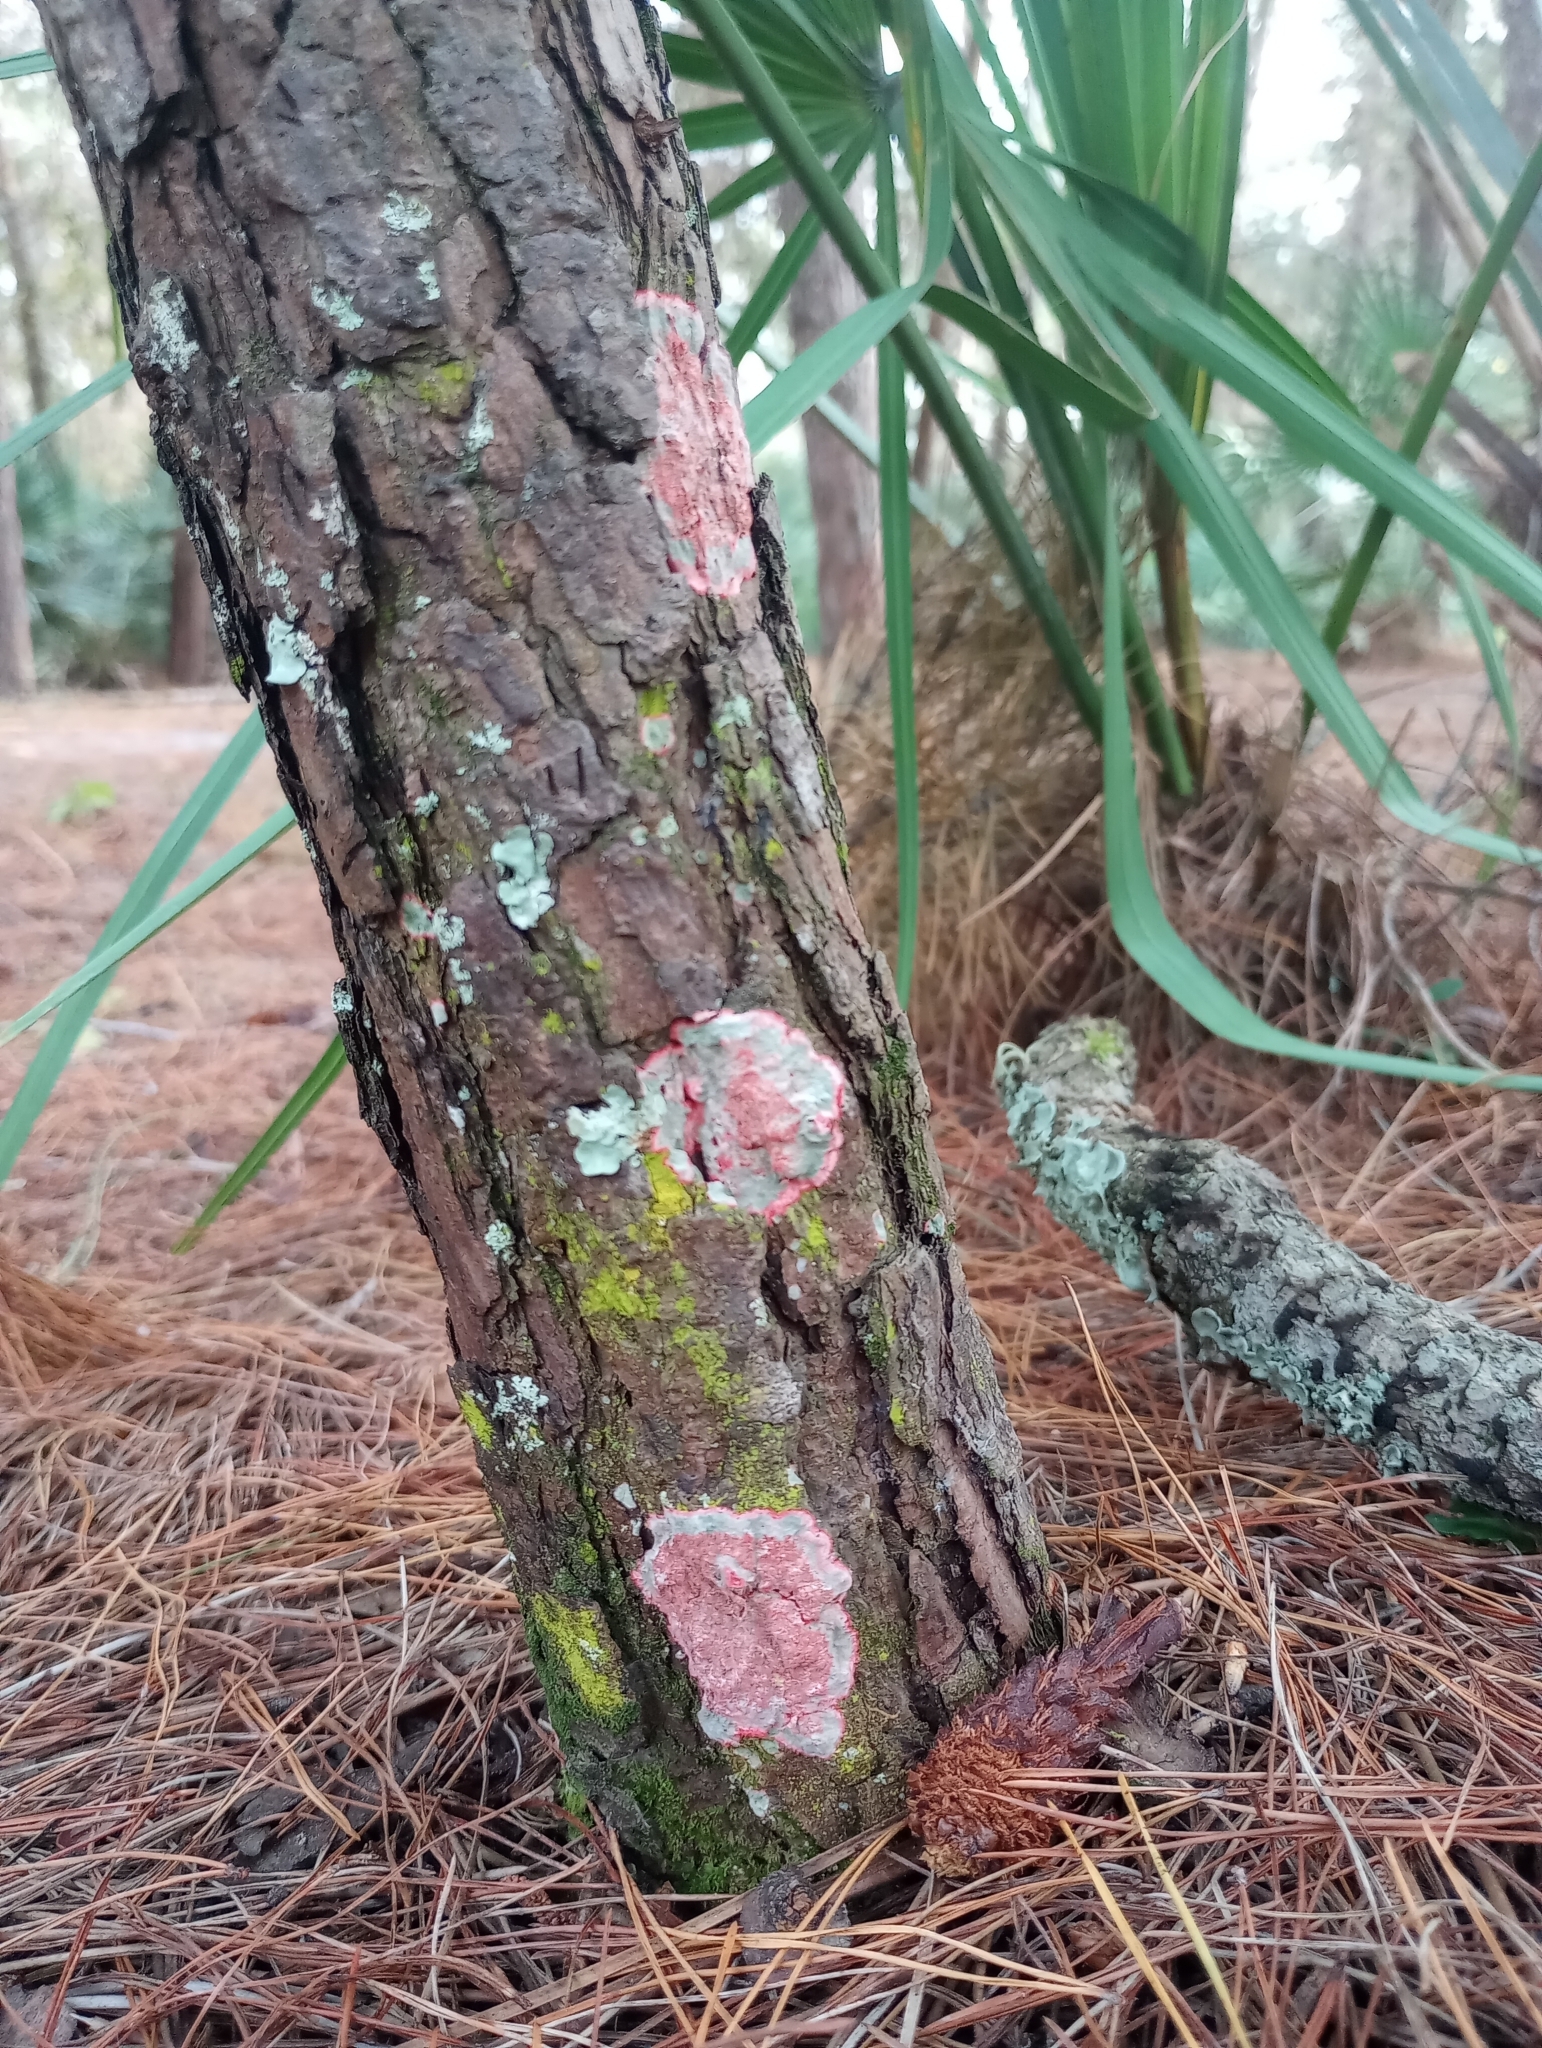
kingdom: Fungi
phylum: Ascomycota
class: Arthoniomycetes
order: Arthoniales
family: Arthoniaceae
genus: Herpothallon
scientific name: Herpothallon rubrocinctum
